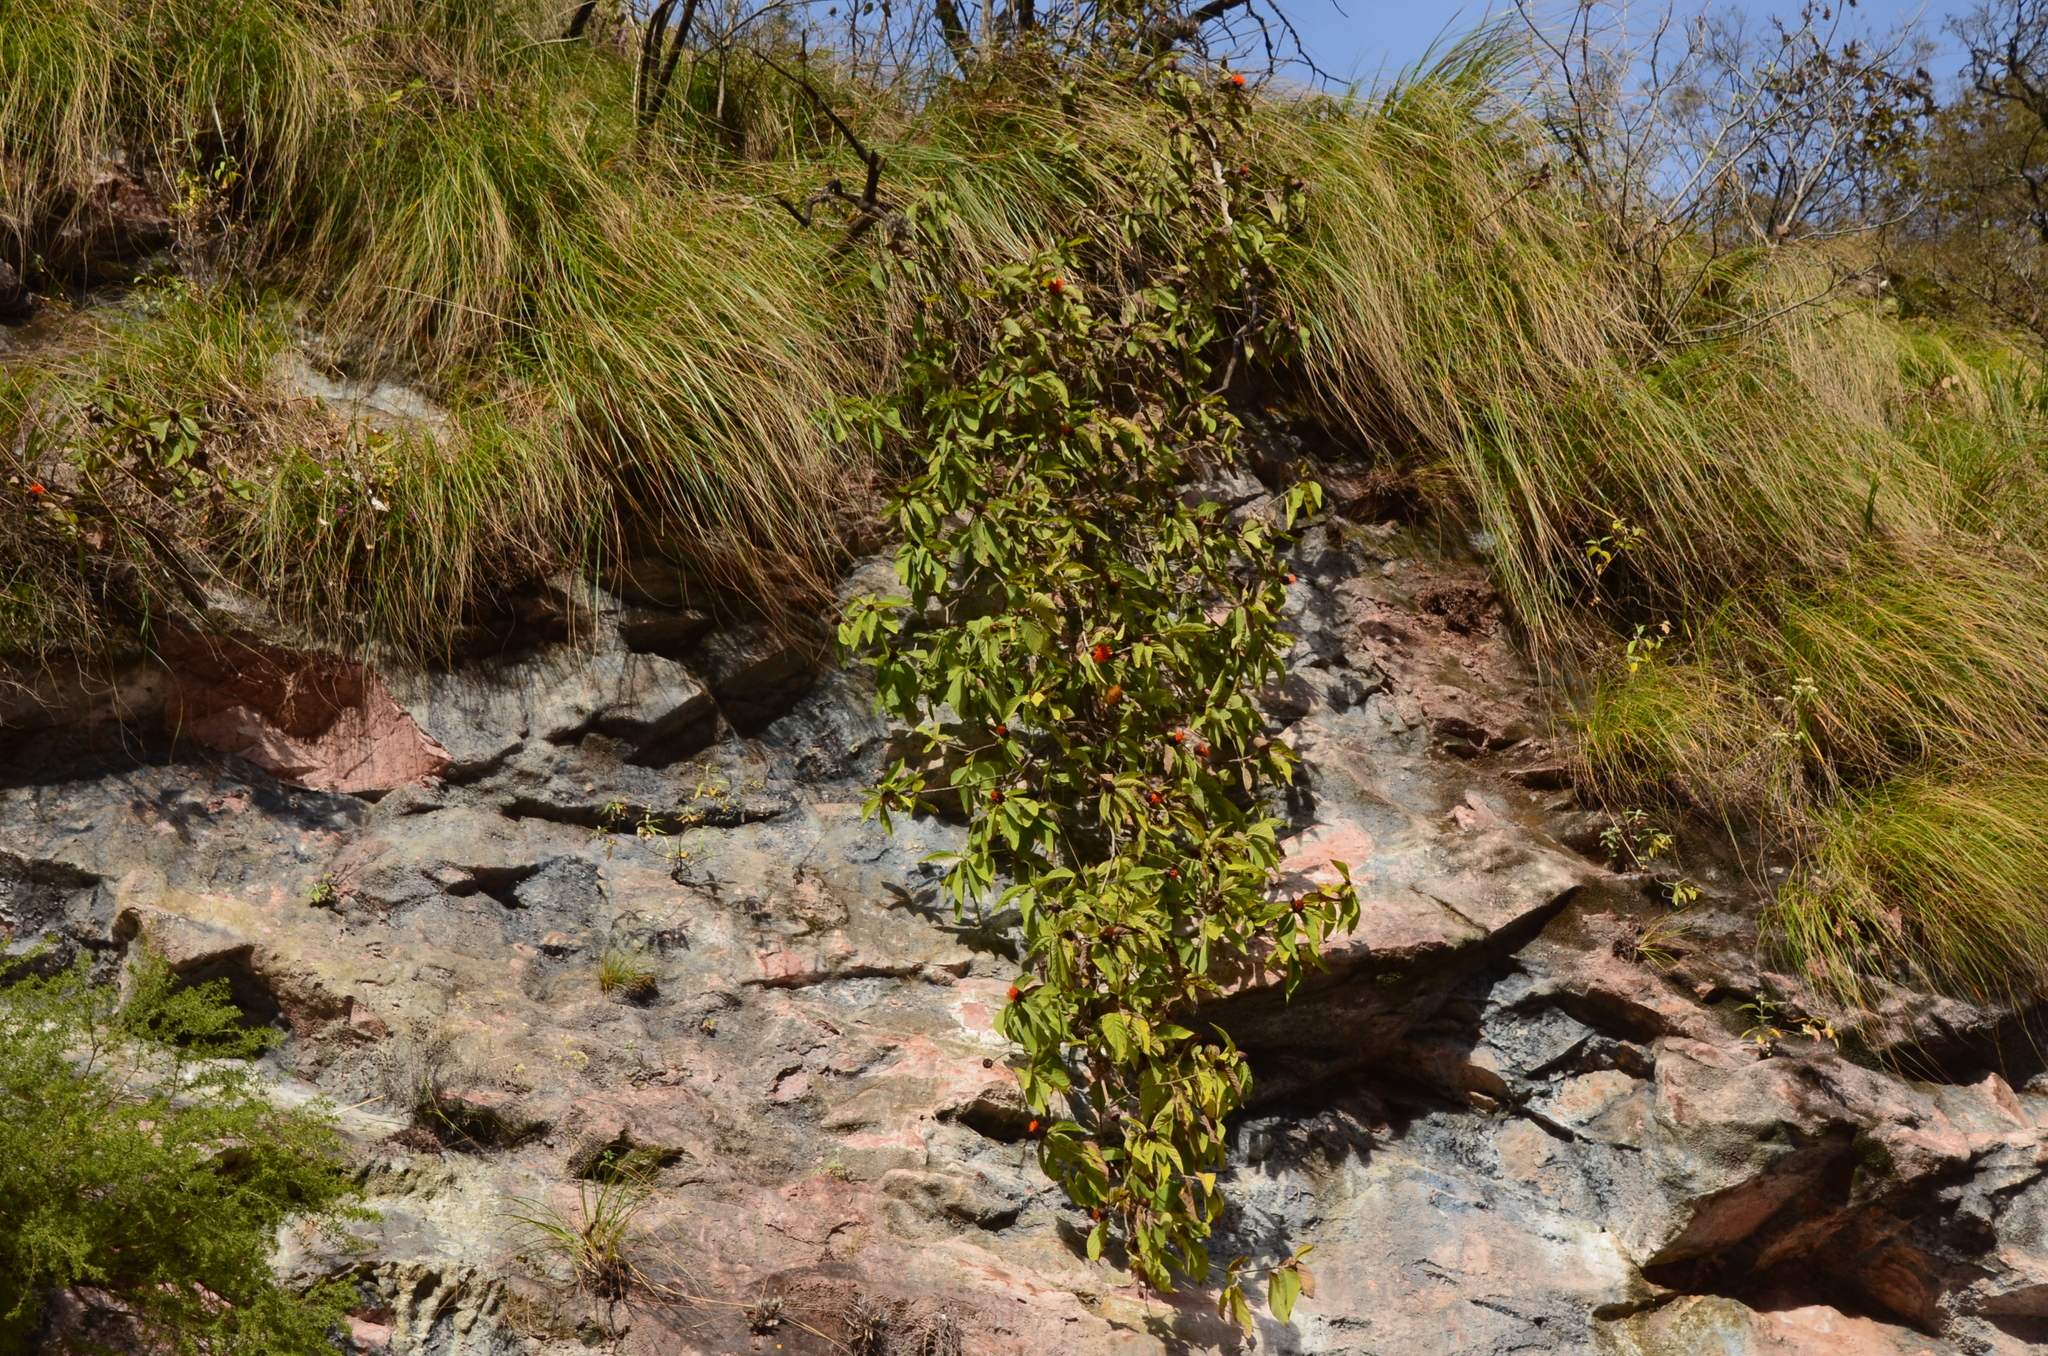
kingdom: Plantae
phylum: Tracheophyta
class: Magnoliopsida
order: Asterales
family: Asteraceae
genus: Cnicothamnus
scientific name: Cnicothamnus lorentzii
